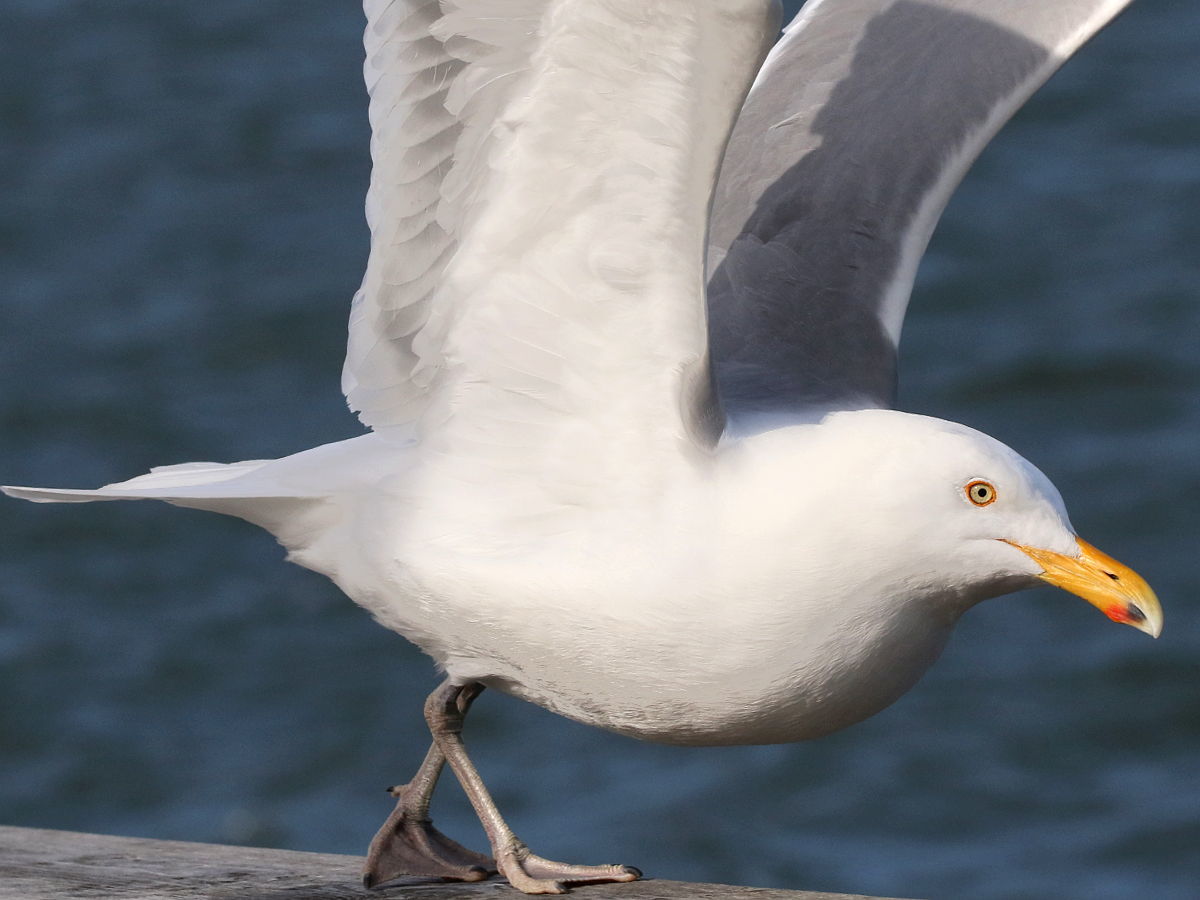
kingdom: Animalia
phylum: Chordata
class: Aves
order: Charadriiformes
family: Laridae
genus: Larus
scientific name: Larus argentatus
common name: Herring gull
